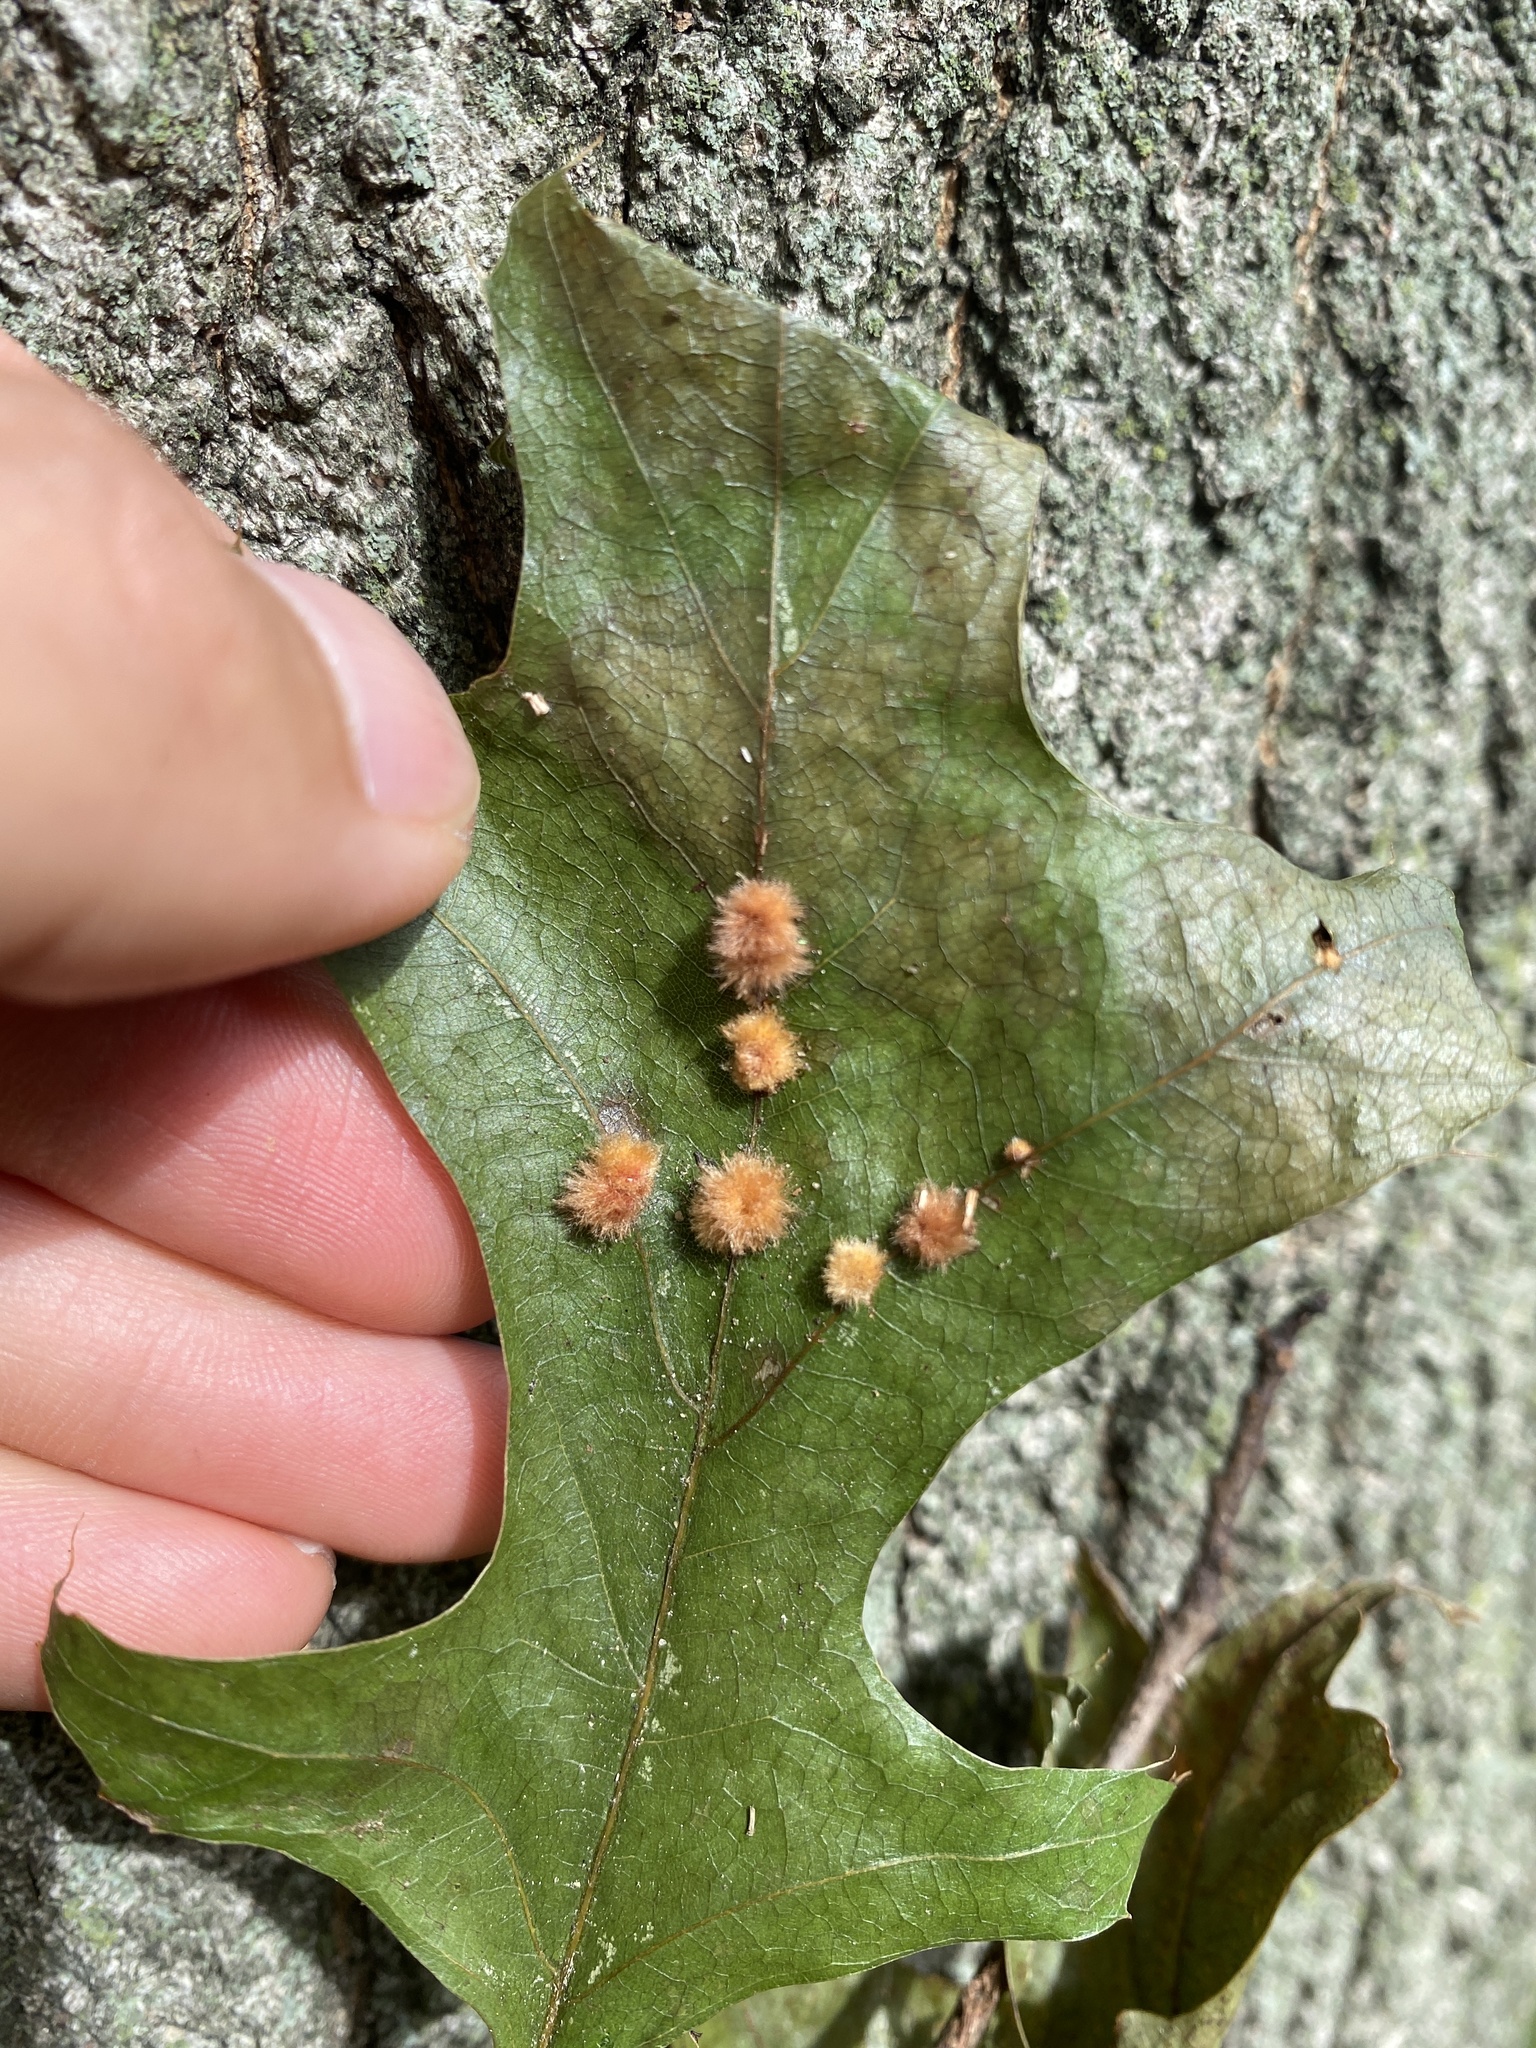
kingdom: Animalia
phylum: Arthropoda
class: Insecta
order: Hymenoptera
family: Cynipidae
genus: Callirhytis
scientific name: Callirhytis
